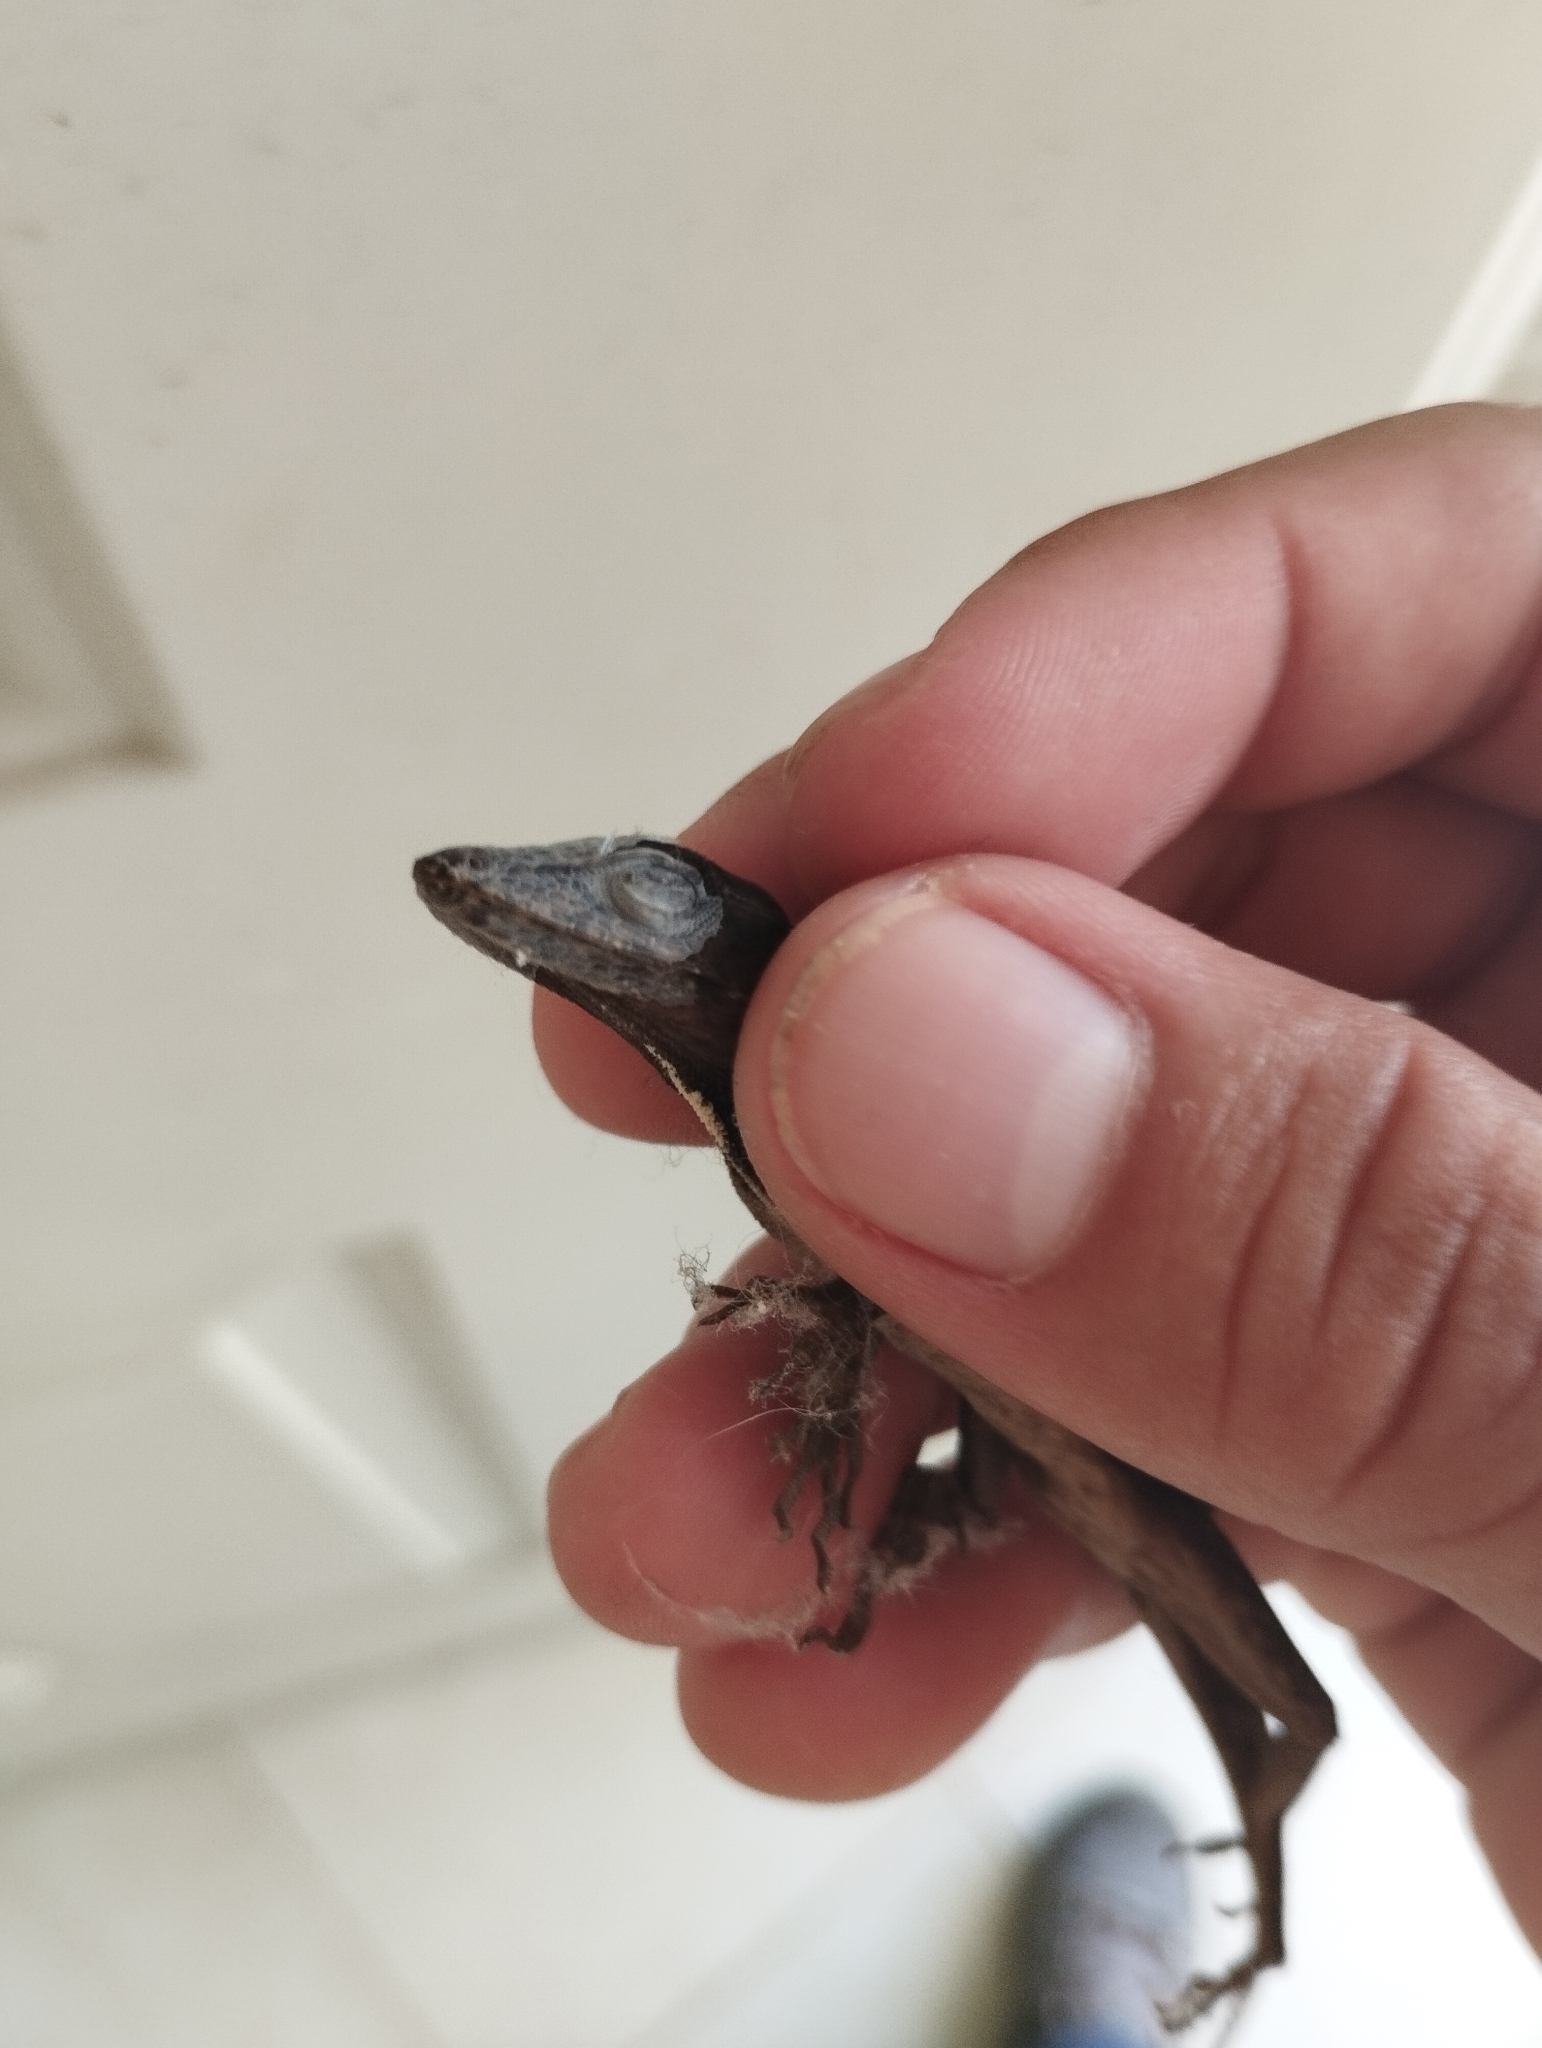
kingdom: Animalia
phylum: Chordata
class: Squamata
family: Dactyloidae
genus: Anolis
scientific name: Anolis sagrei
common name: Brown anole
